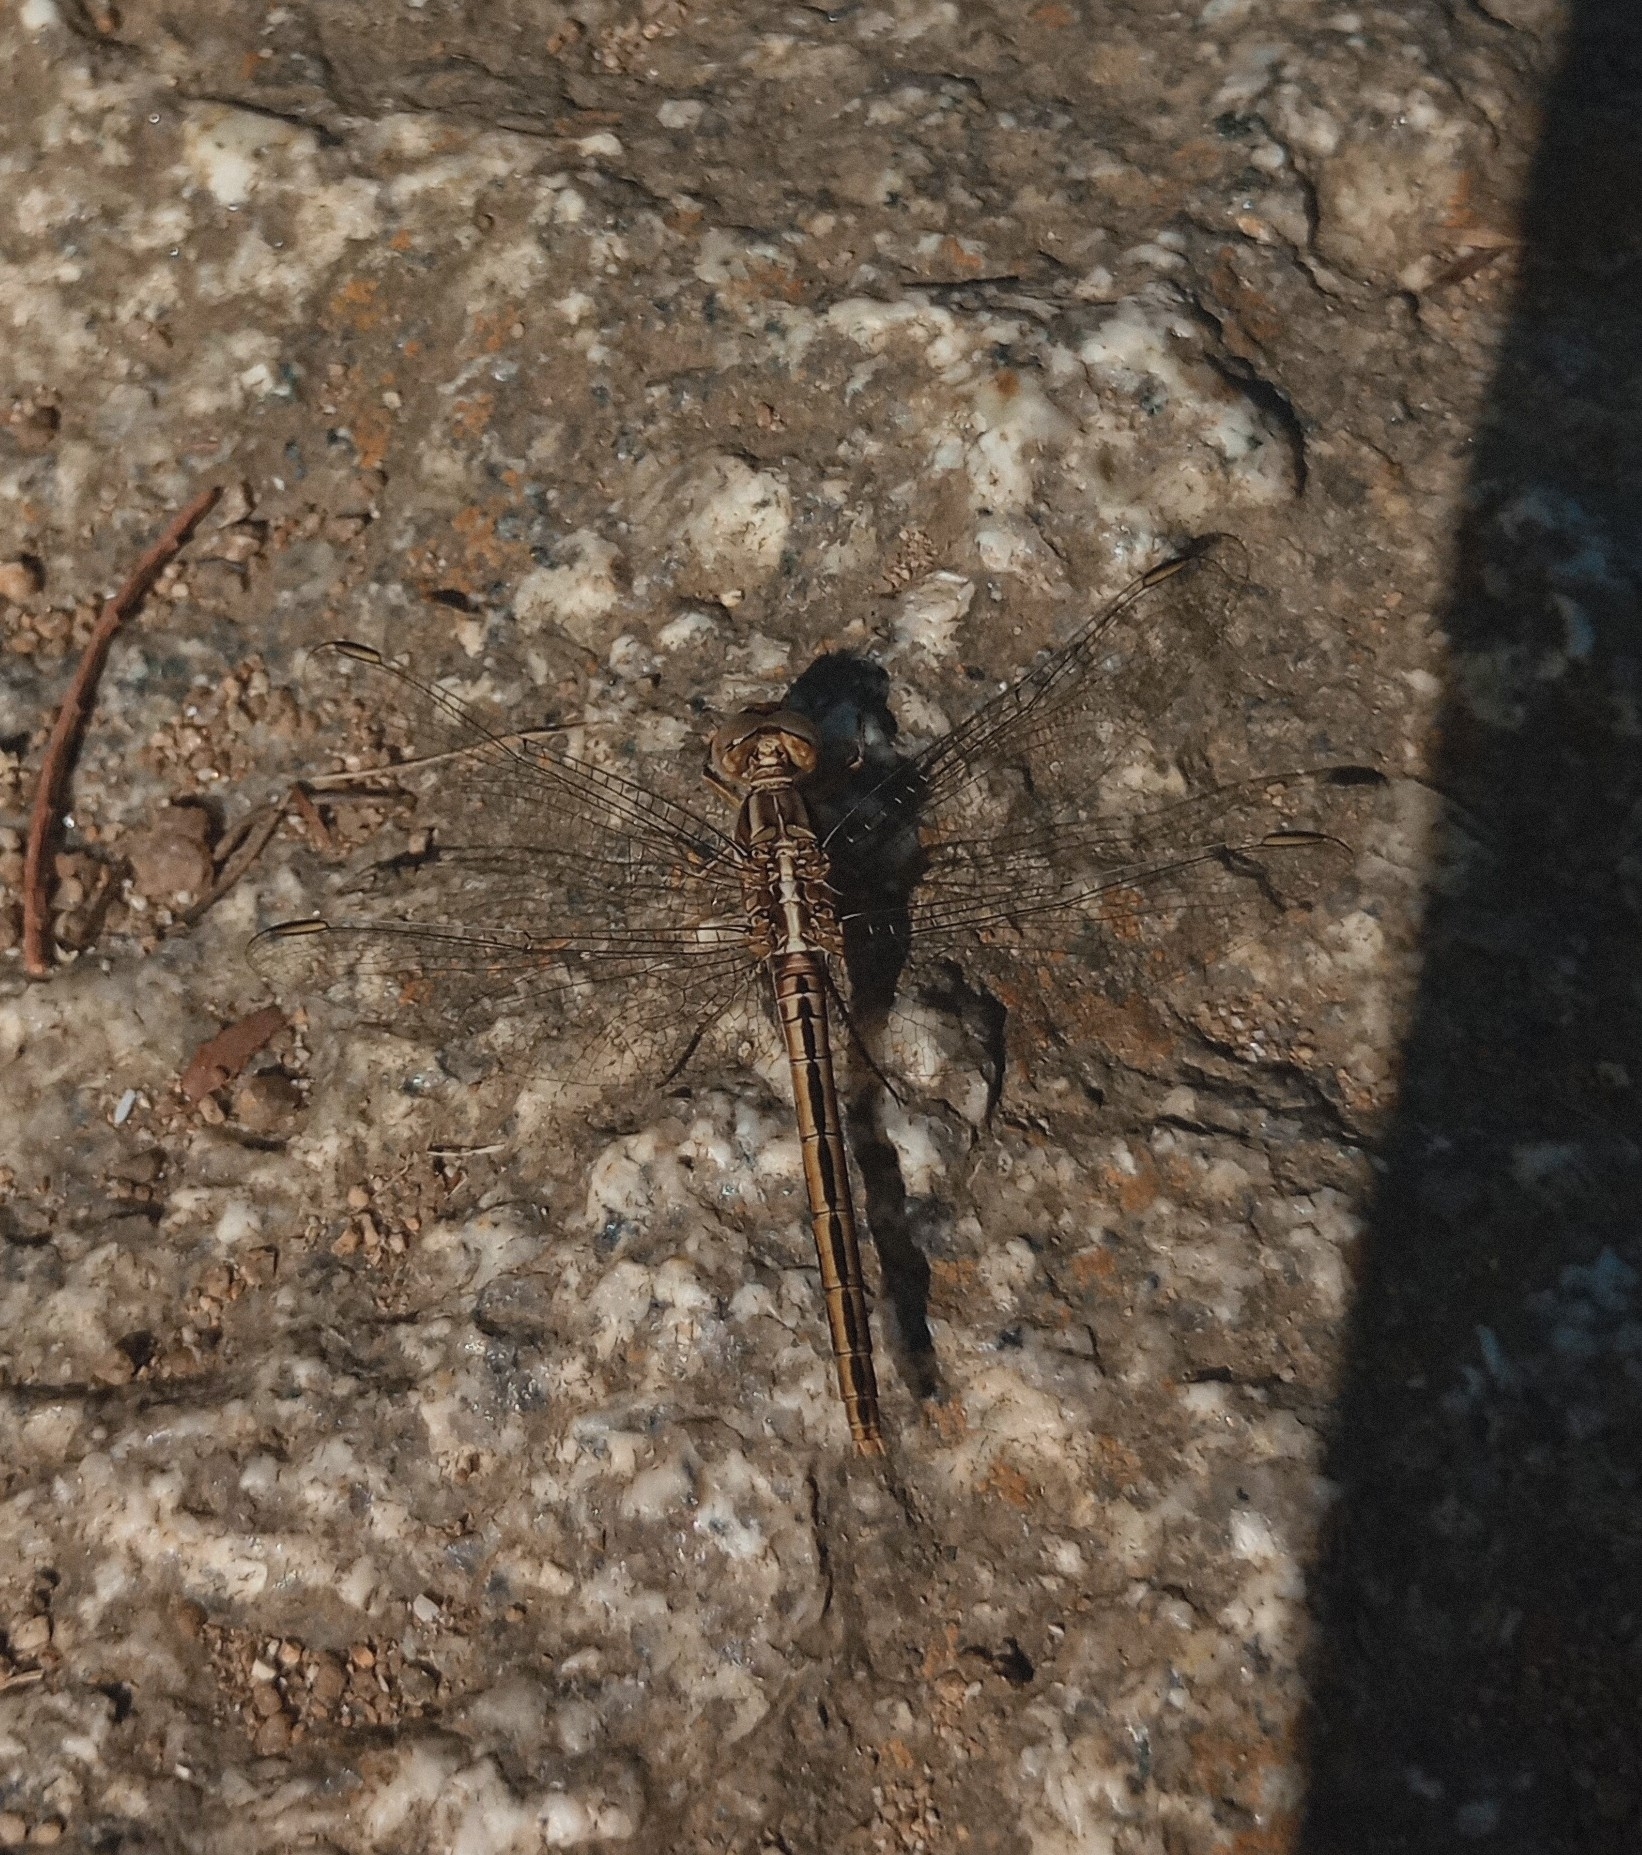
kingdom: Animalia
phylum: Arthropoda
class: Insecta
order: Odonata
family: Libellulidae
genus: Orthetrum
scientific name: Orthetrum taeniolatum
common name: Small skimmer
